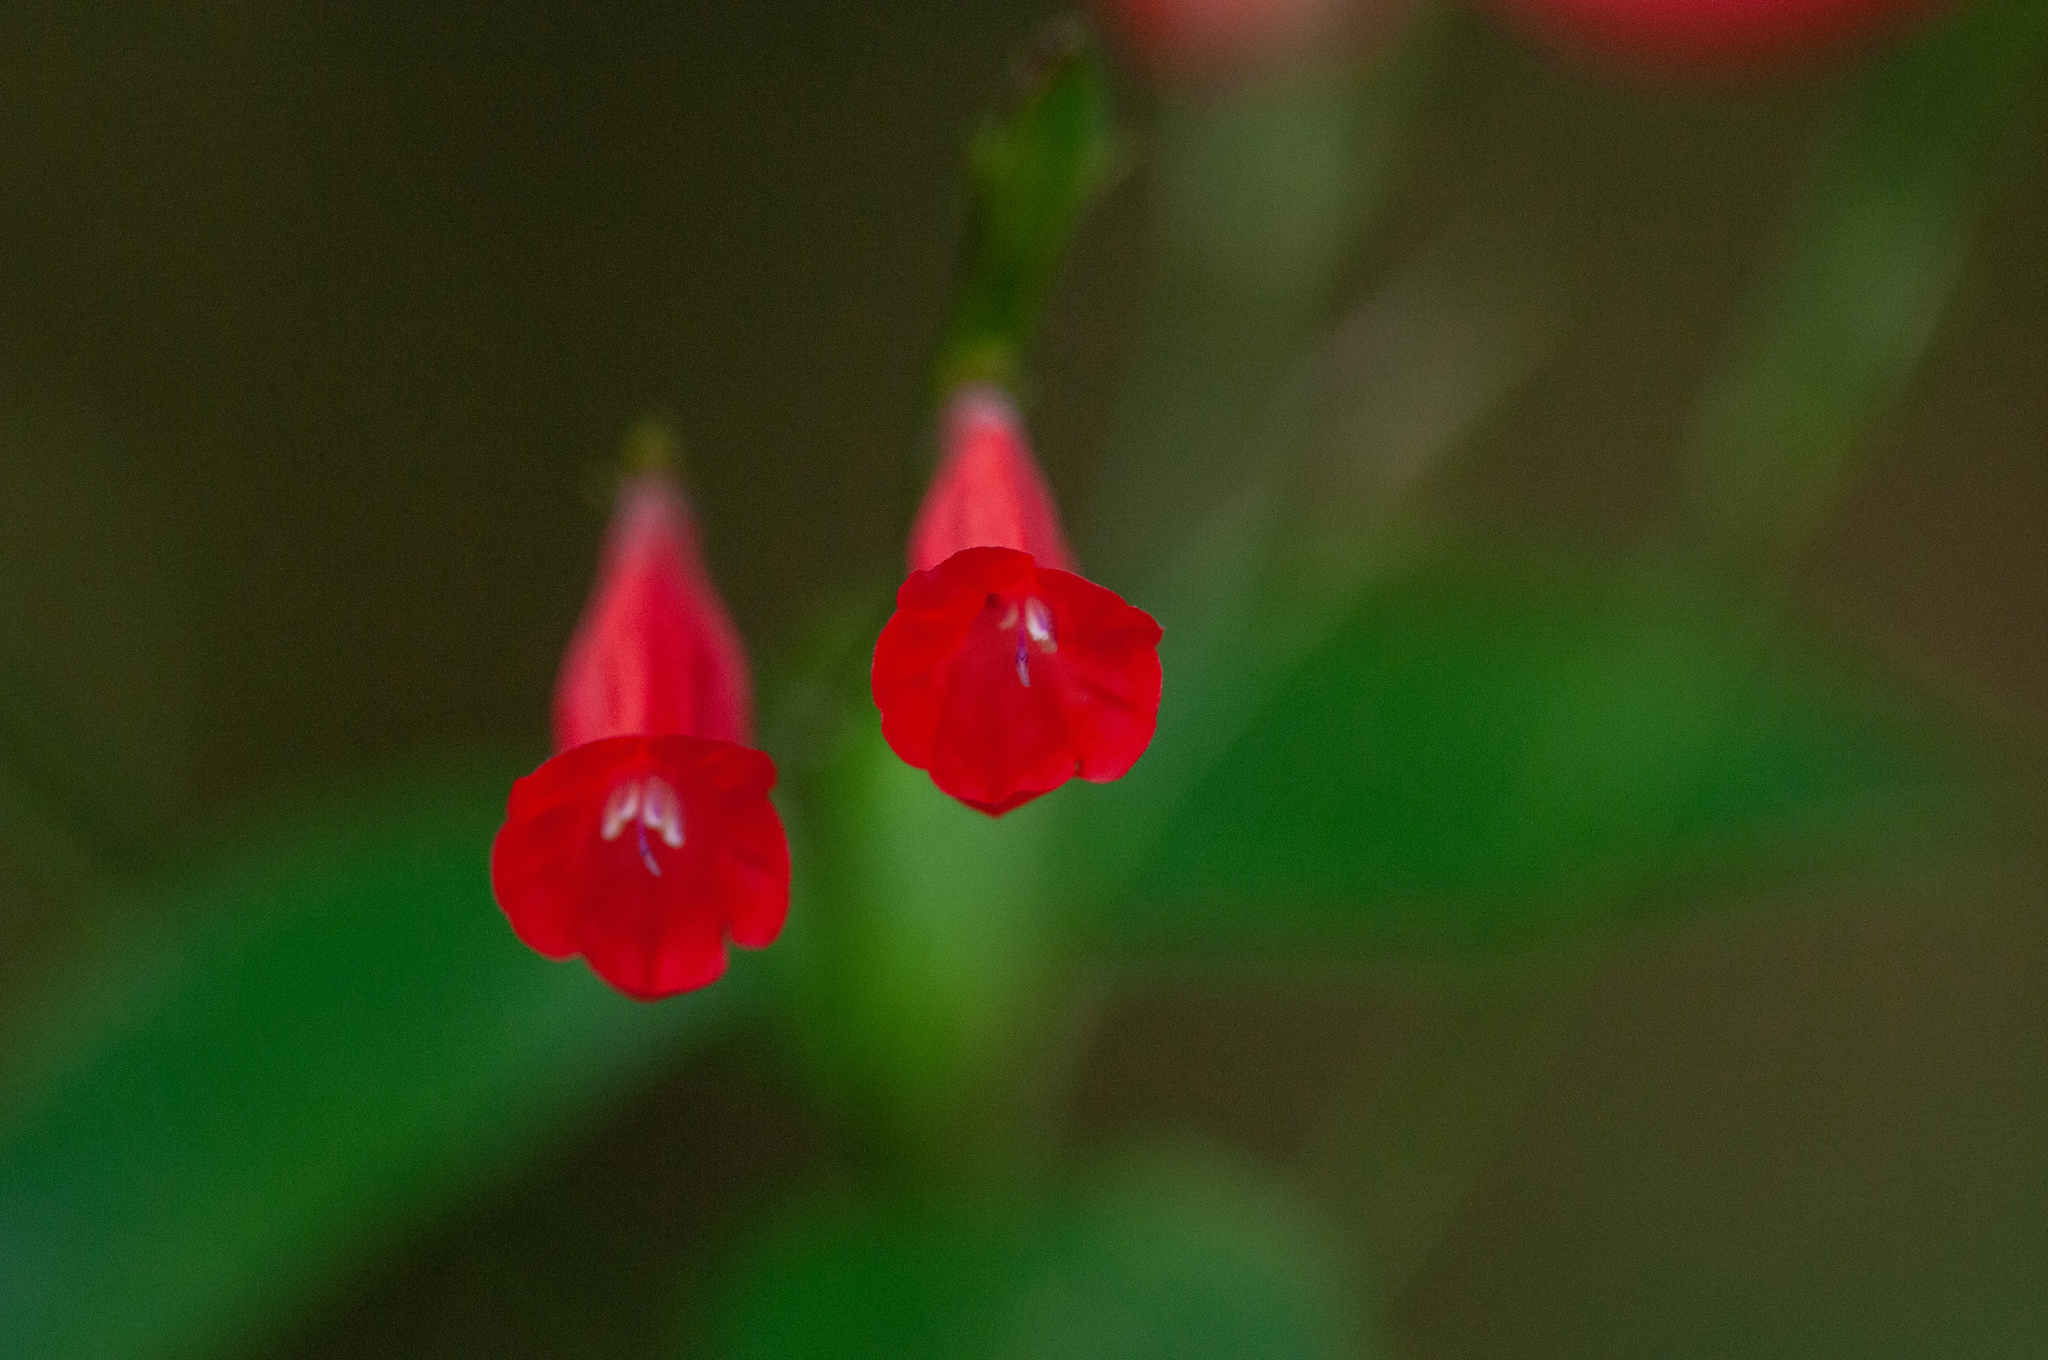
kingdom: Plantae
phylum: Tracheophyta
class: Magnoliopsida
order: Lamiales
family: Acanthaceae
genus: Ruellia
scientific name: Ruellia brevifolia
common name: Tropical wild petunia
